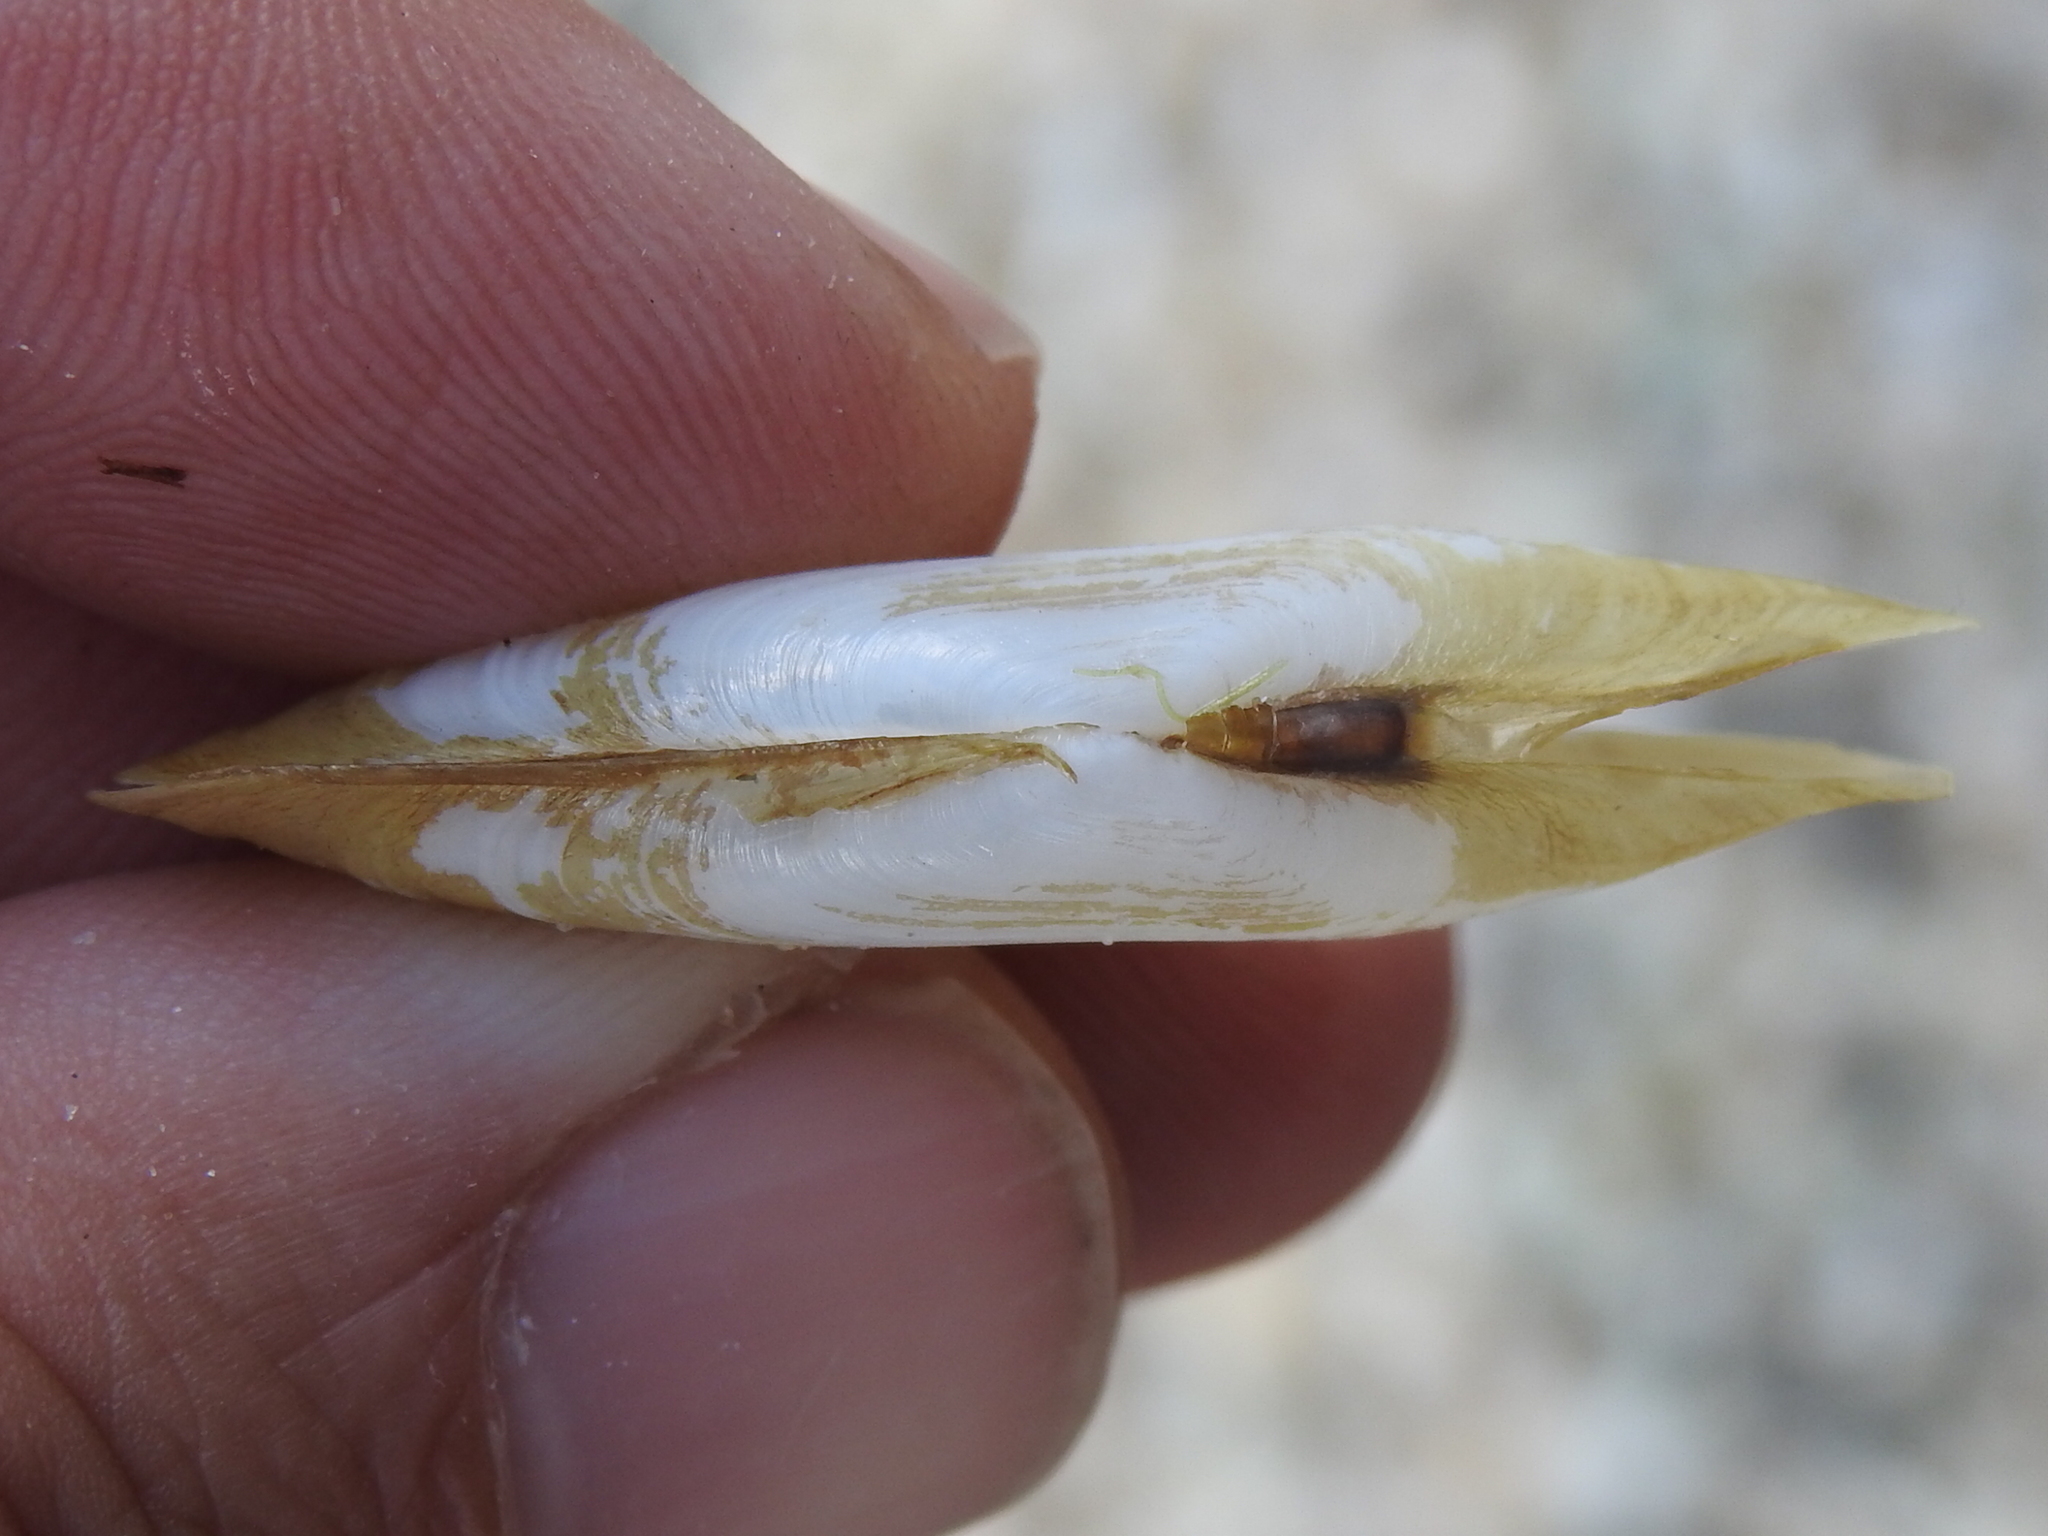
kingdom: Animalia
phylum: Mollusca
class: Bivalvia
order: Cardiida
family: Solecurtidae
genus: Tagelus
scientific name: Tagelus plebeius
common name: Stout tagelus
